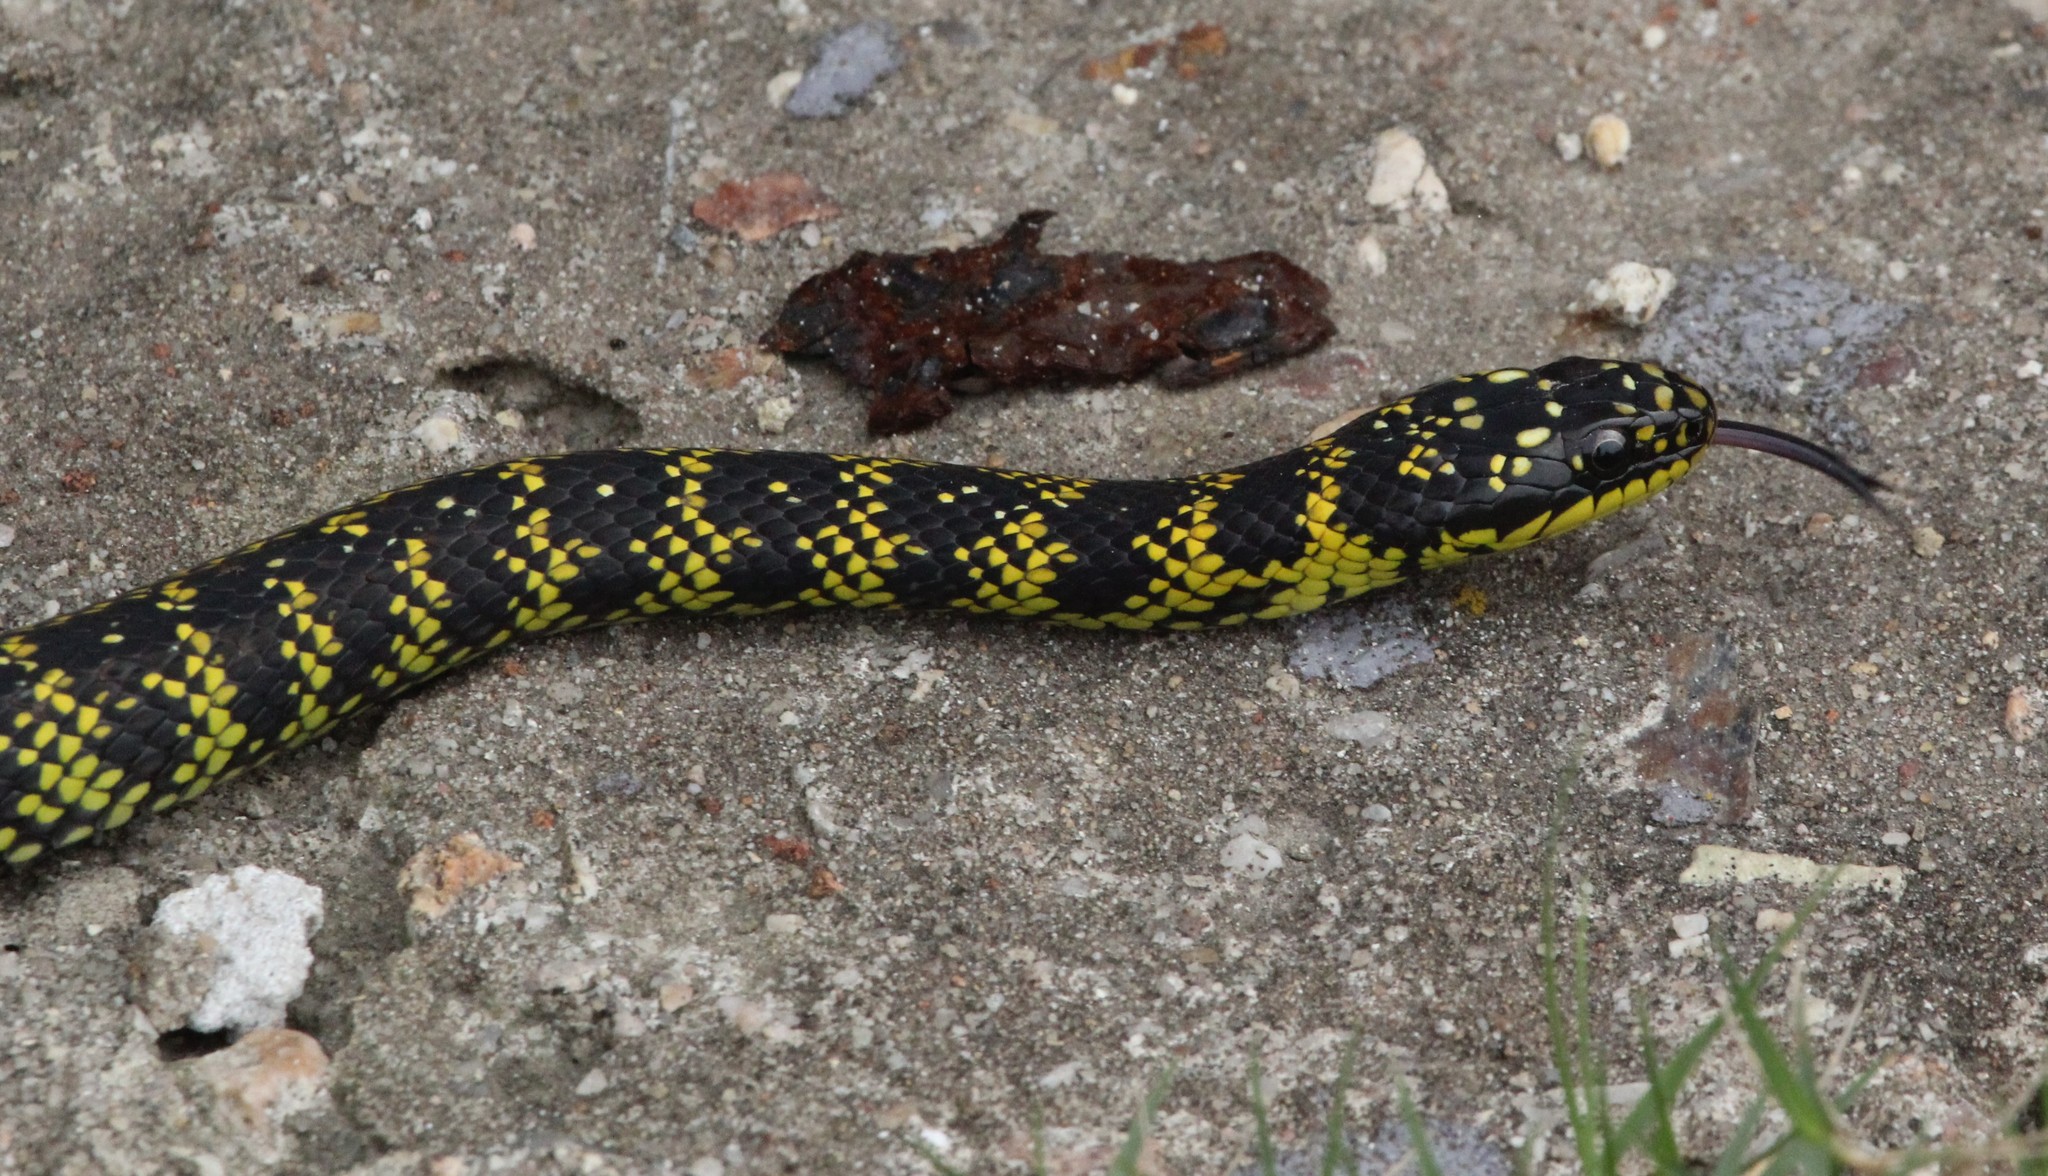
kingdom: Animalia
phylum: Chordata
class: Squamata
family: Colubridae
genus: Erythrolamprus
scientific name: Erythrolamprus poecilogyrus
